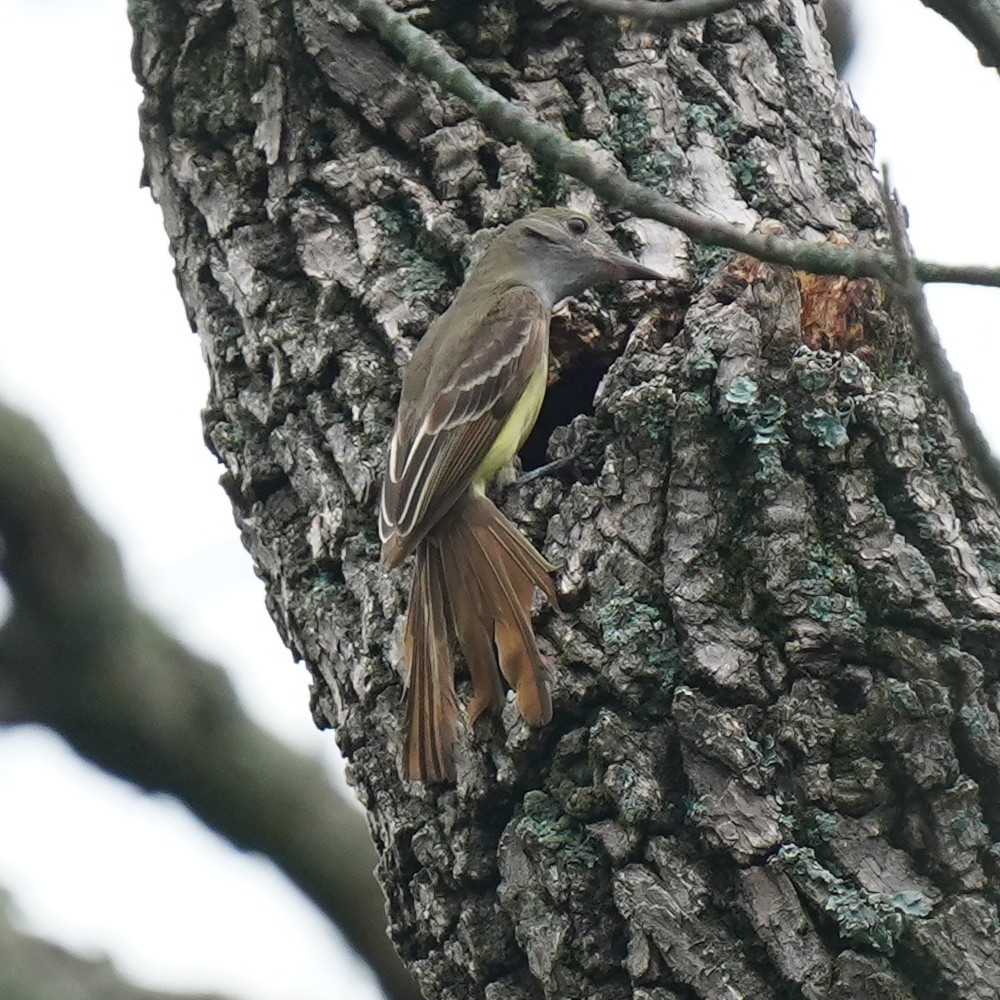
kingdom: Animalia
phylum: Chordata
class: Aves
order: Passeriformes
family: Tyrannidae
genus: Myiarchus
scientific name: Myiarchus crinitus
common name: Great crested flycatcher
